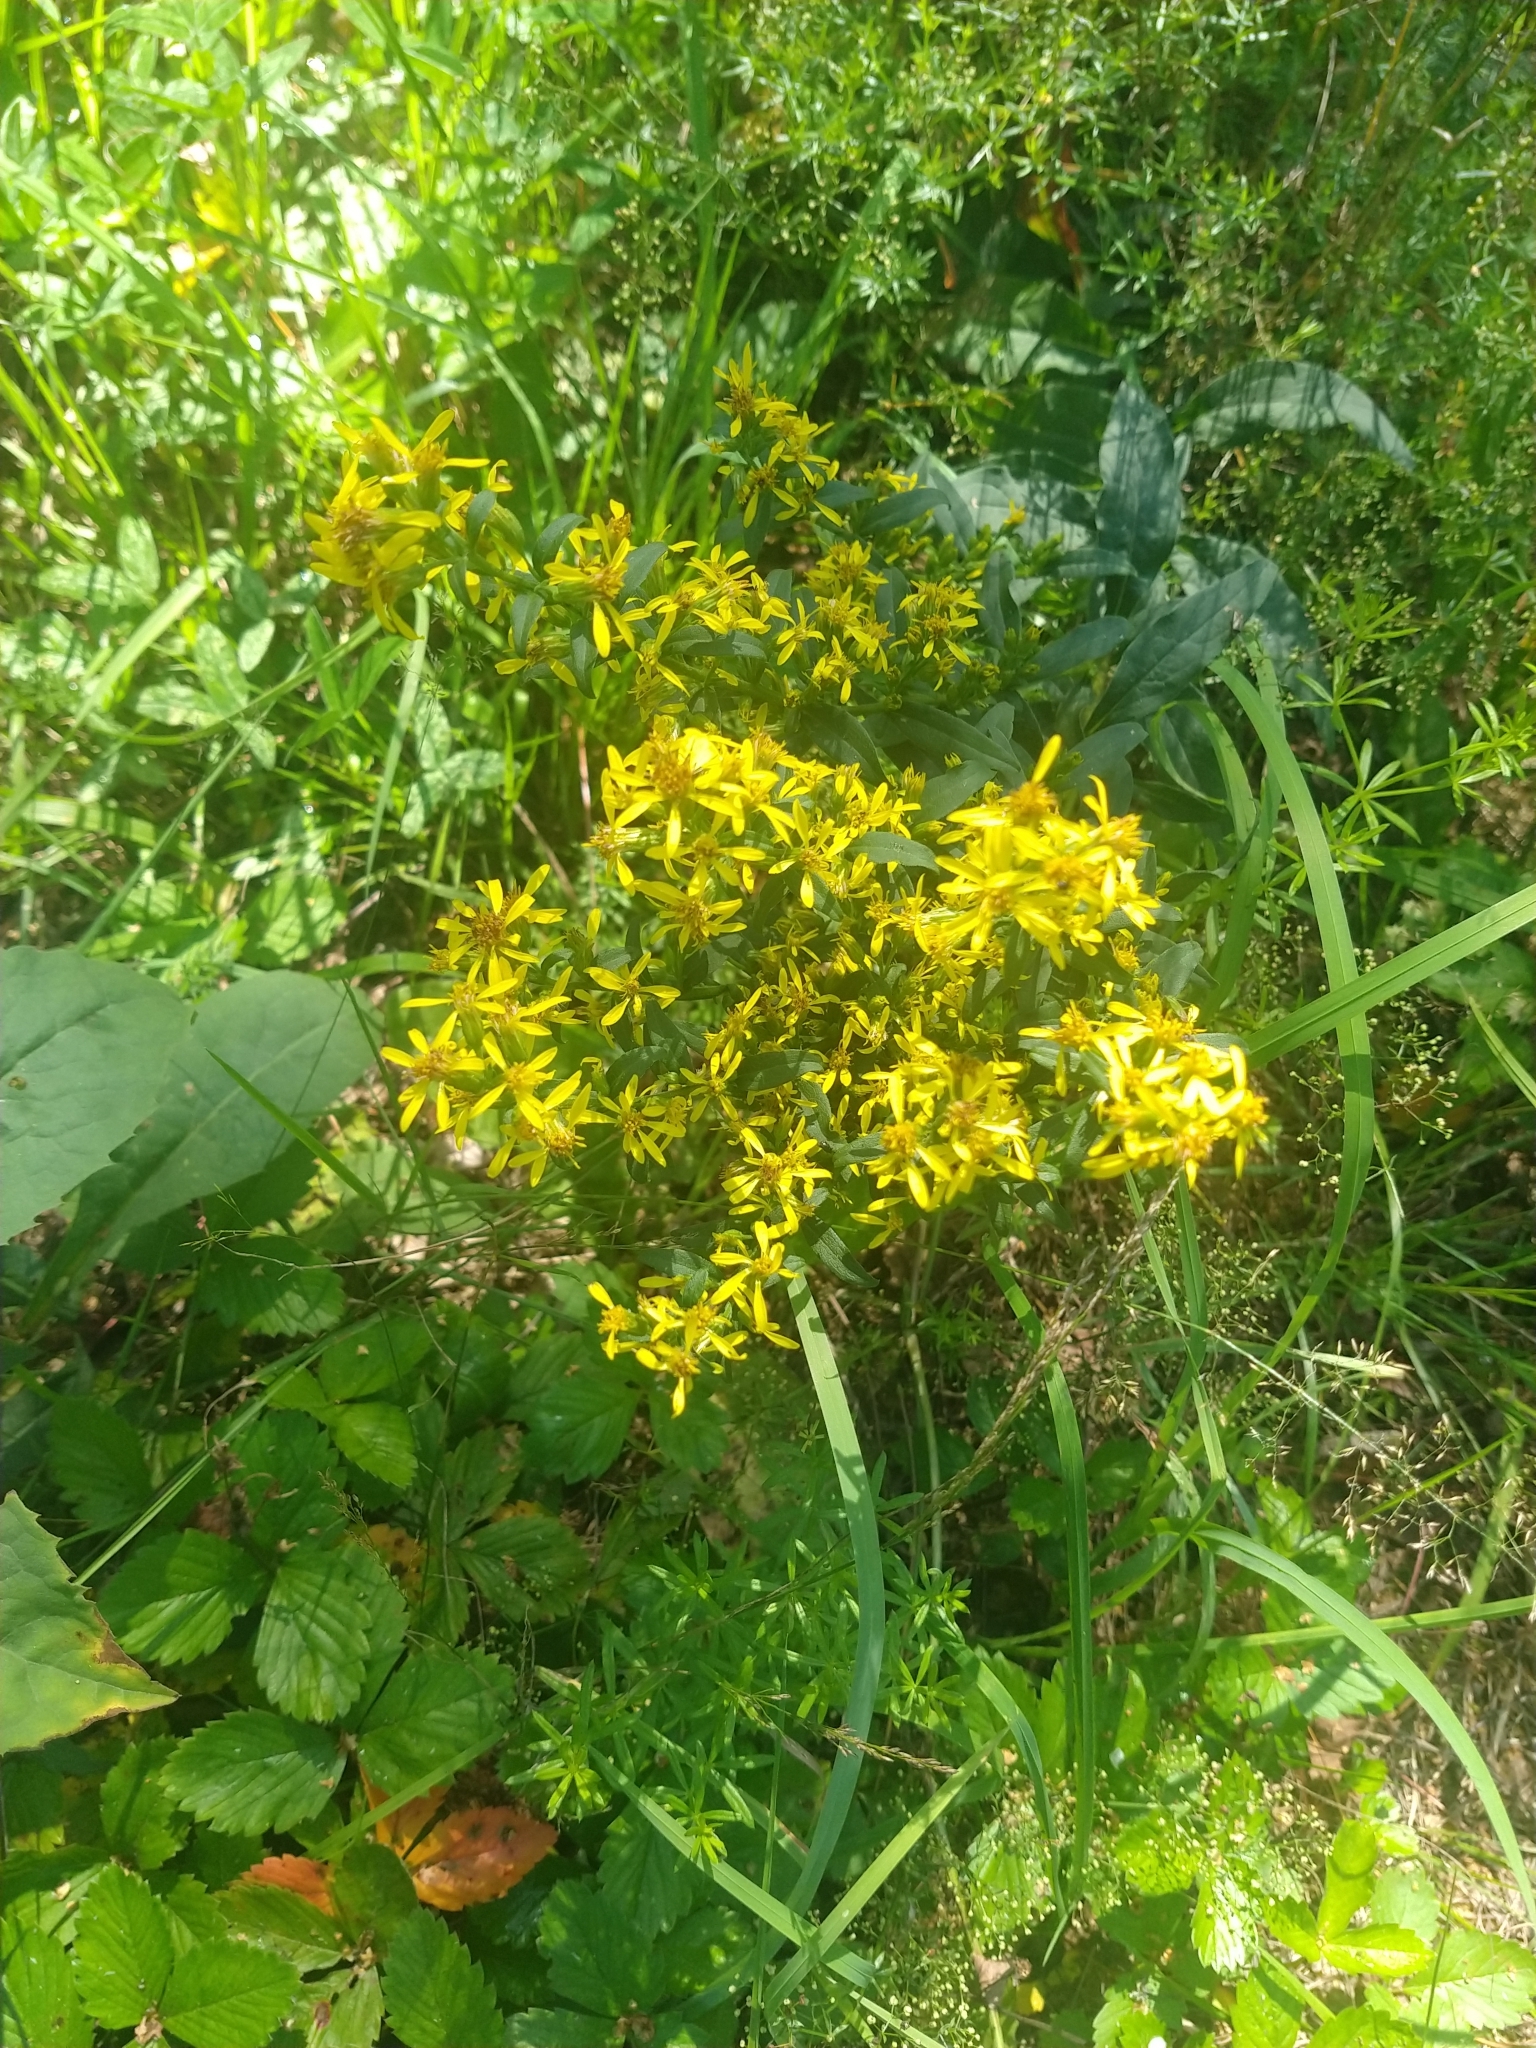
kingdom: Plantae
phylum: Tracheophyta
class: Magnoliopsida
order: Asterales
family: Asteraceae
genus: Solidago
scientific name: Solidago virgaurea
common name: Goldenrod
